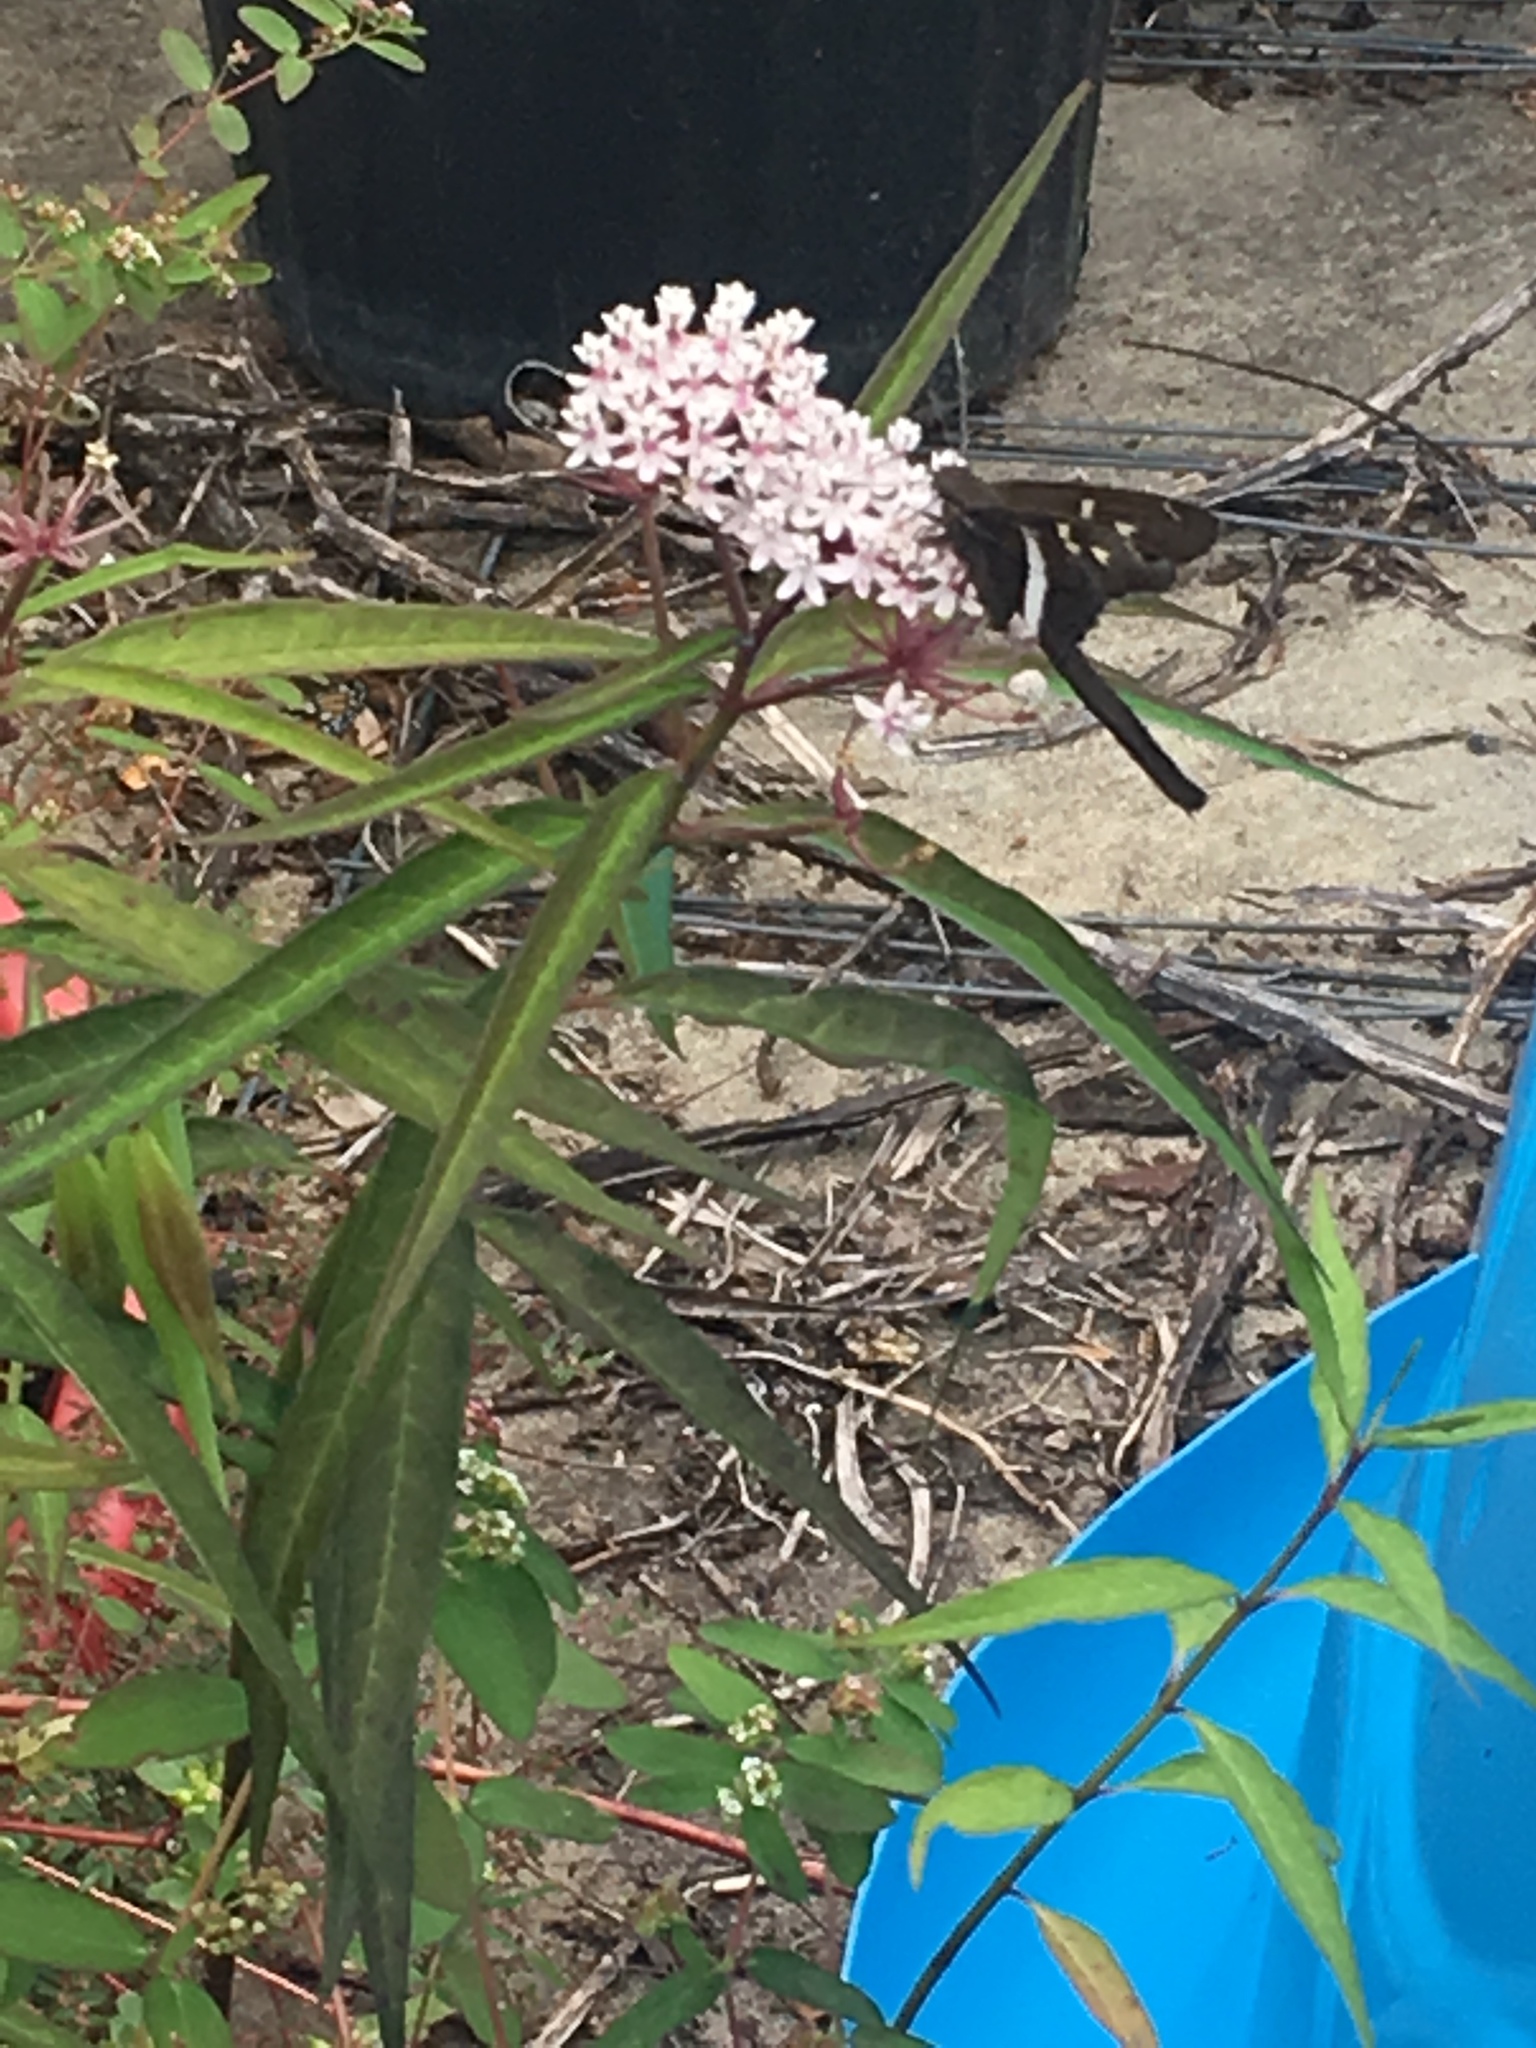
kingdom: Animalia
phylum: Arthropoda
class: Insecta
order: Lepidoptera
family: Hesperiidae
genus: Chioides
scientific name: Chioides catillus
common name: Silverbanded skipper
